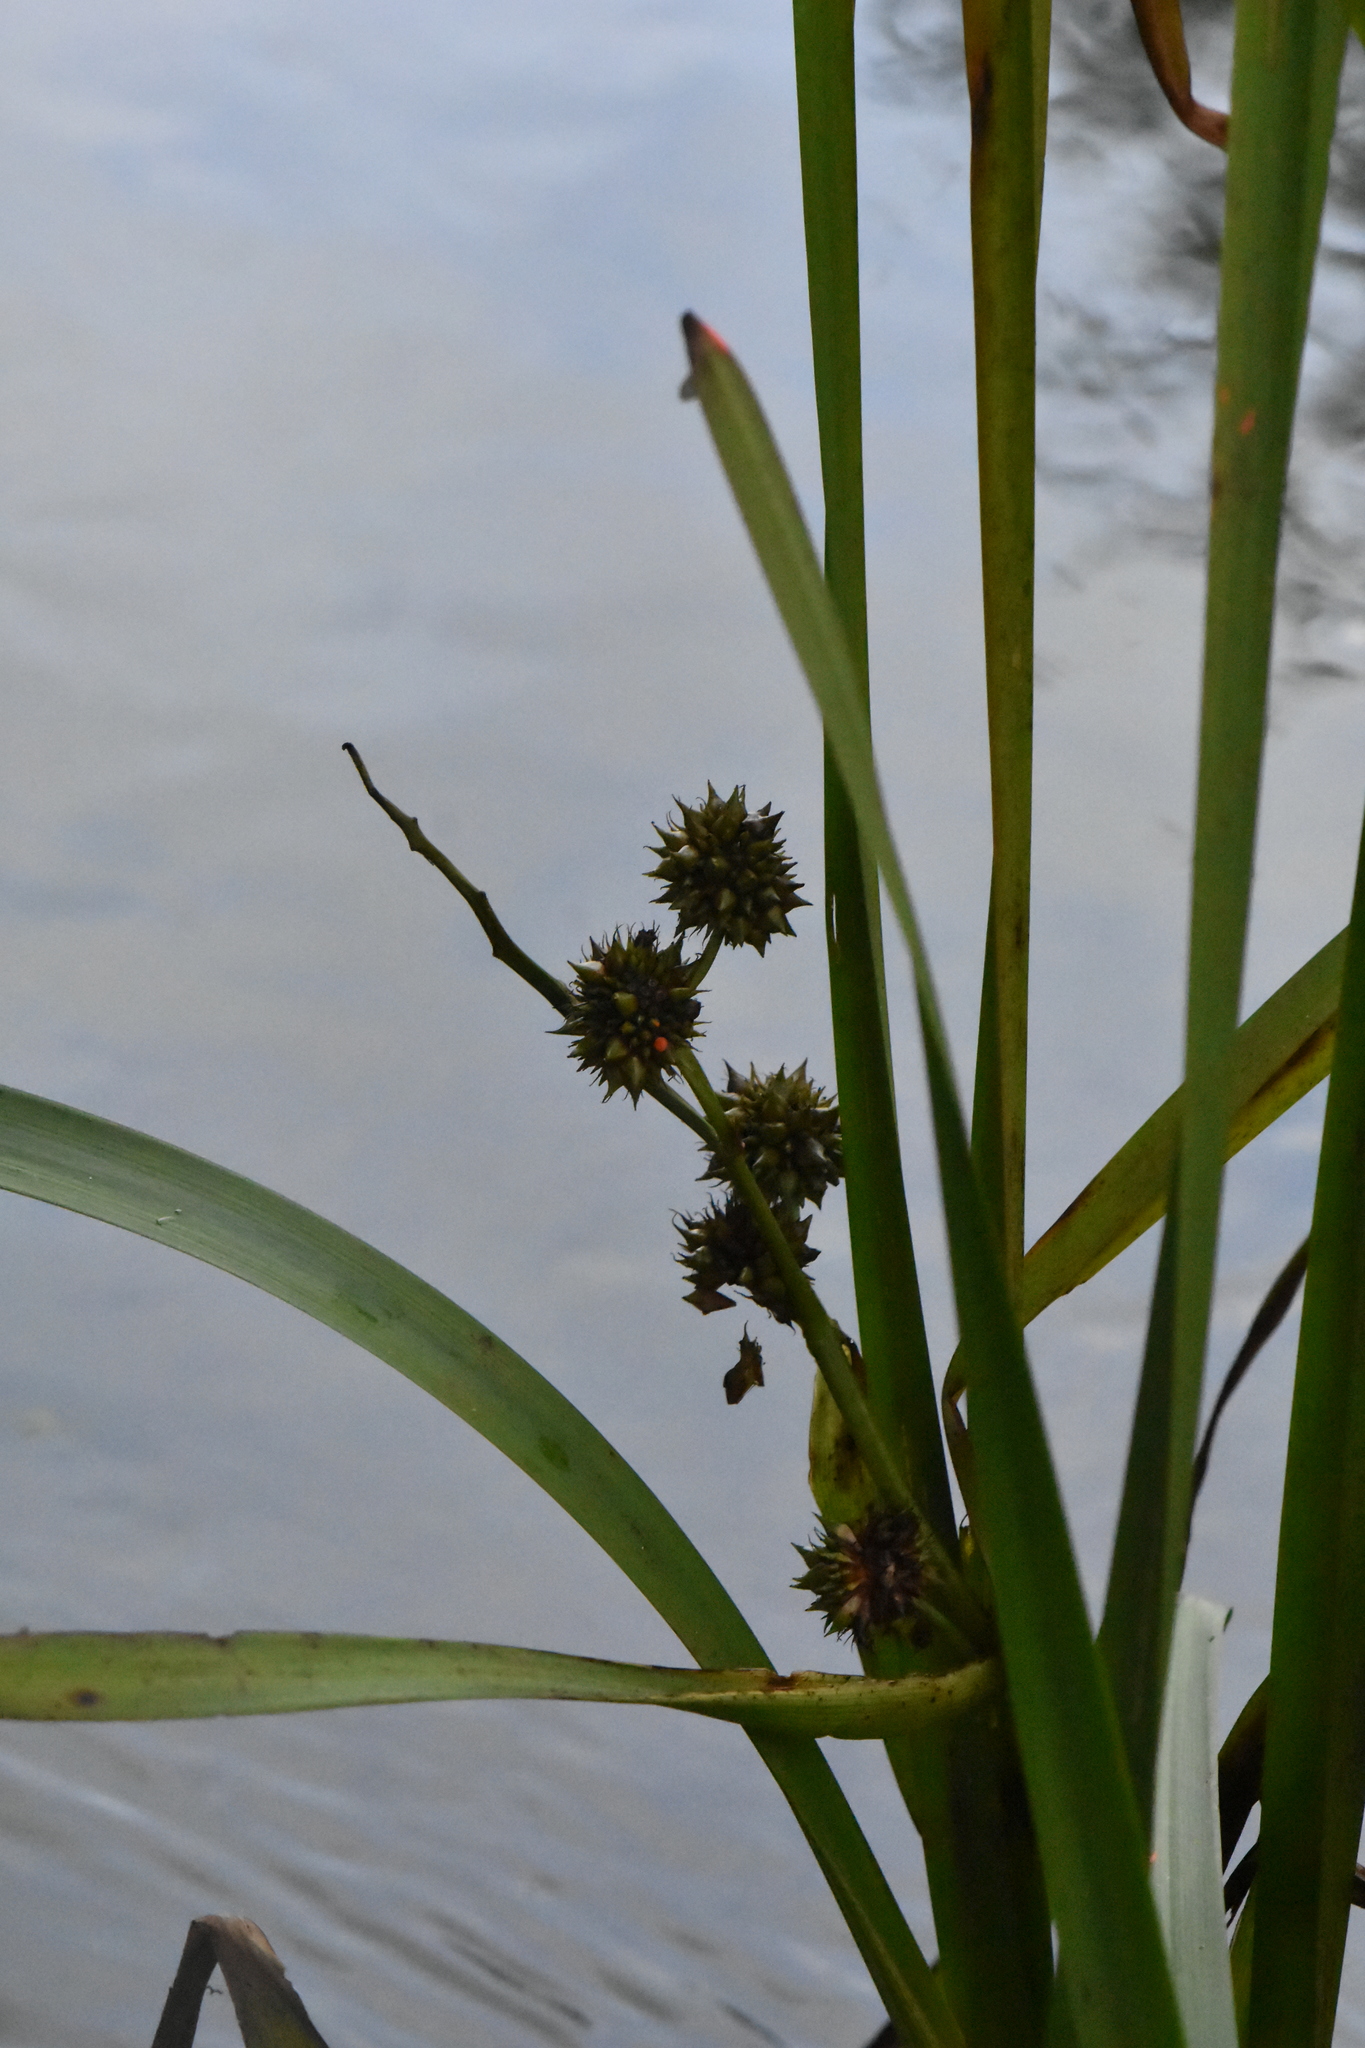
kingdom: Plantae
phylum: Tracheophyta
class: Liliopsida
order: Poales
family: Typhaceae
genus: Sparganium
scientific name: Sparganium erectum
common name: Branched bur-reed
